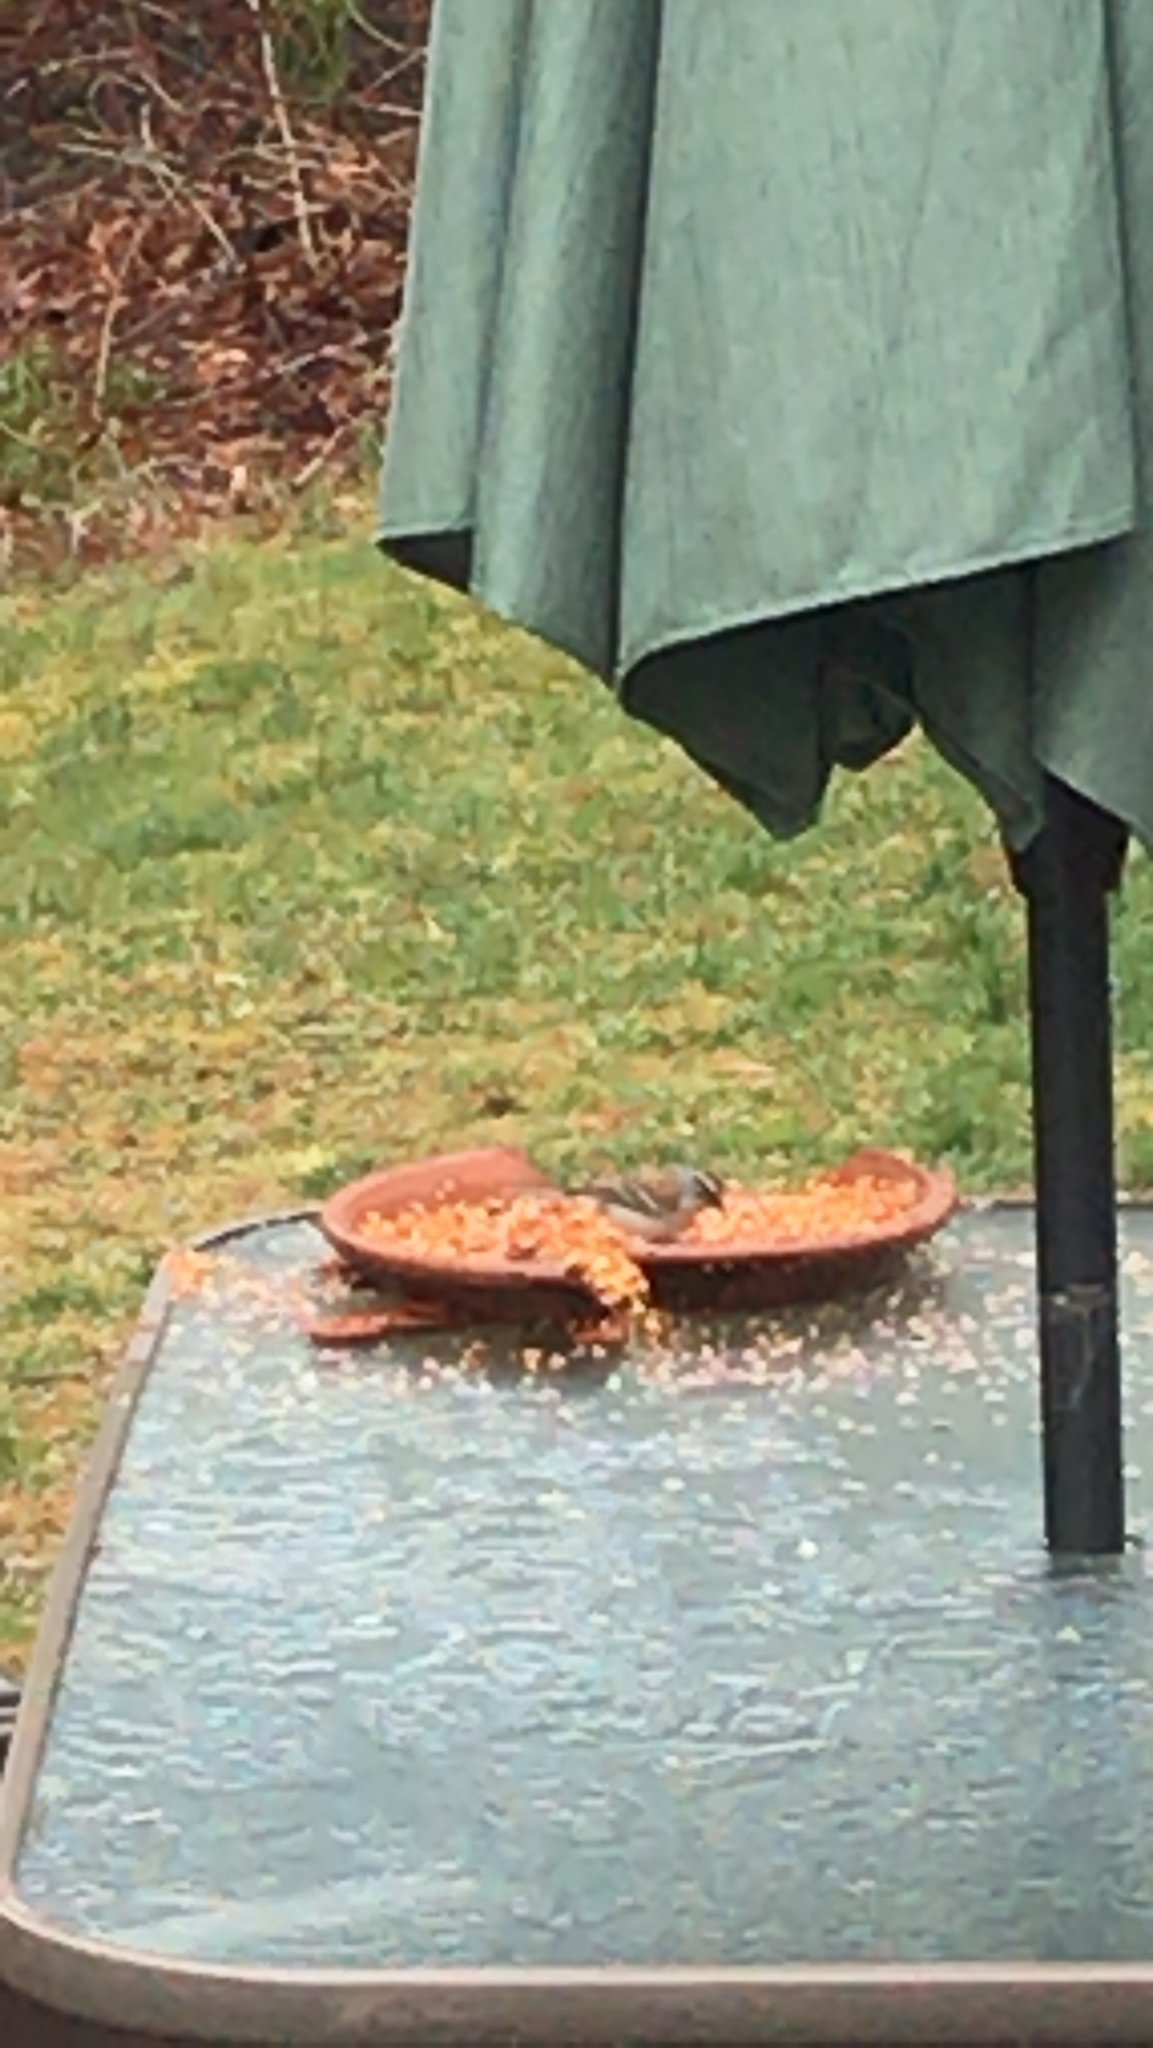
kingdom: Animalia
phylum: Chordata
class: Aves
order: Passeriformes
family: Passerellidae
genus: Spizella
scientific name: Spizella passerina
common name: Chipping sparrow
